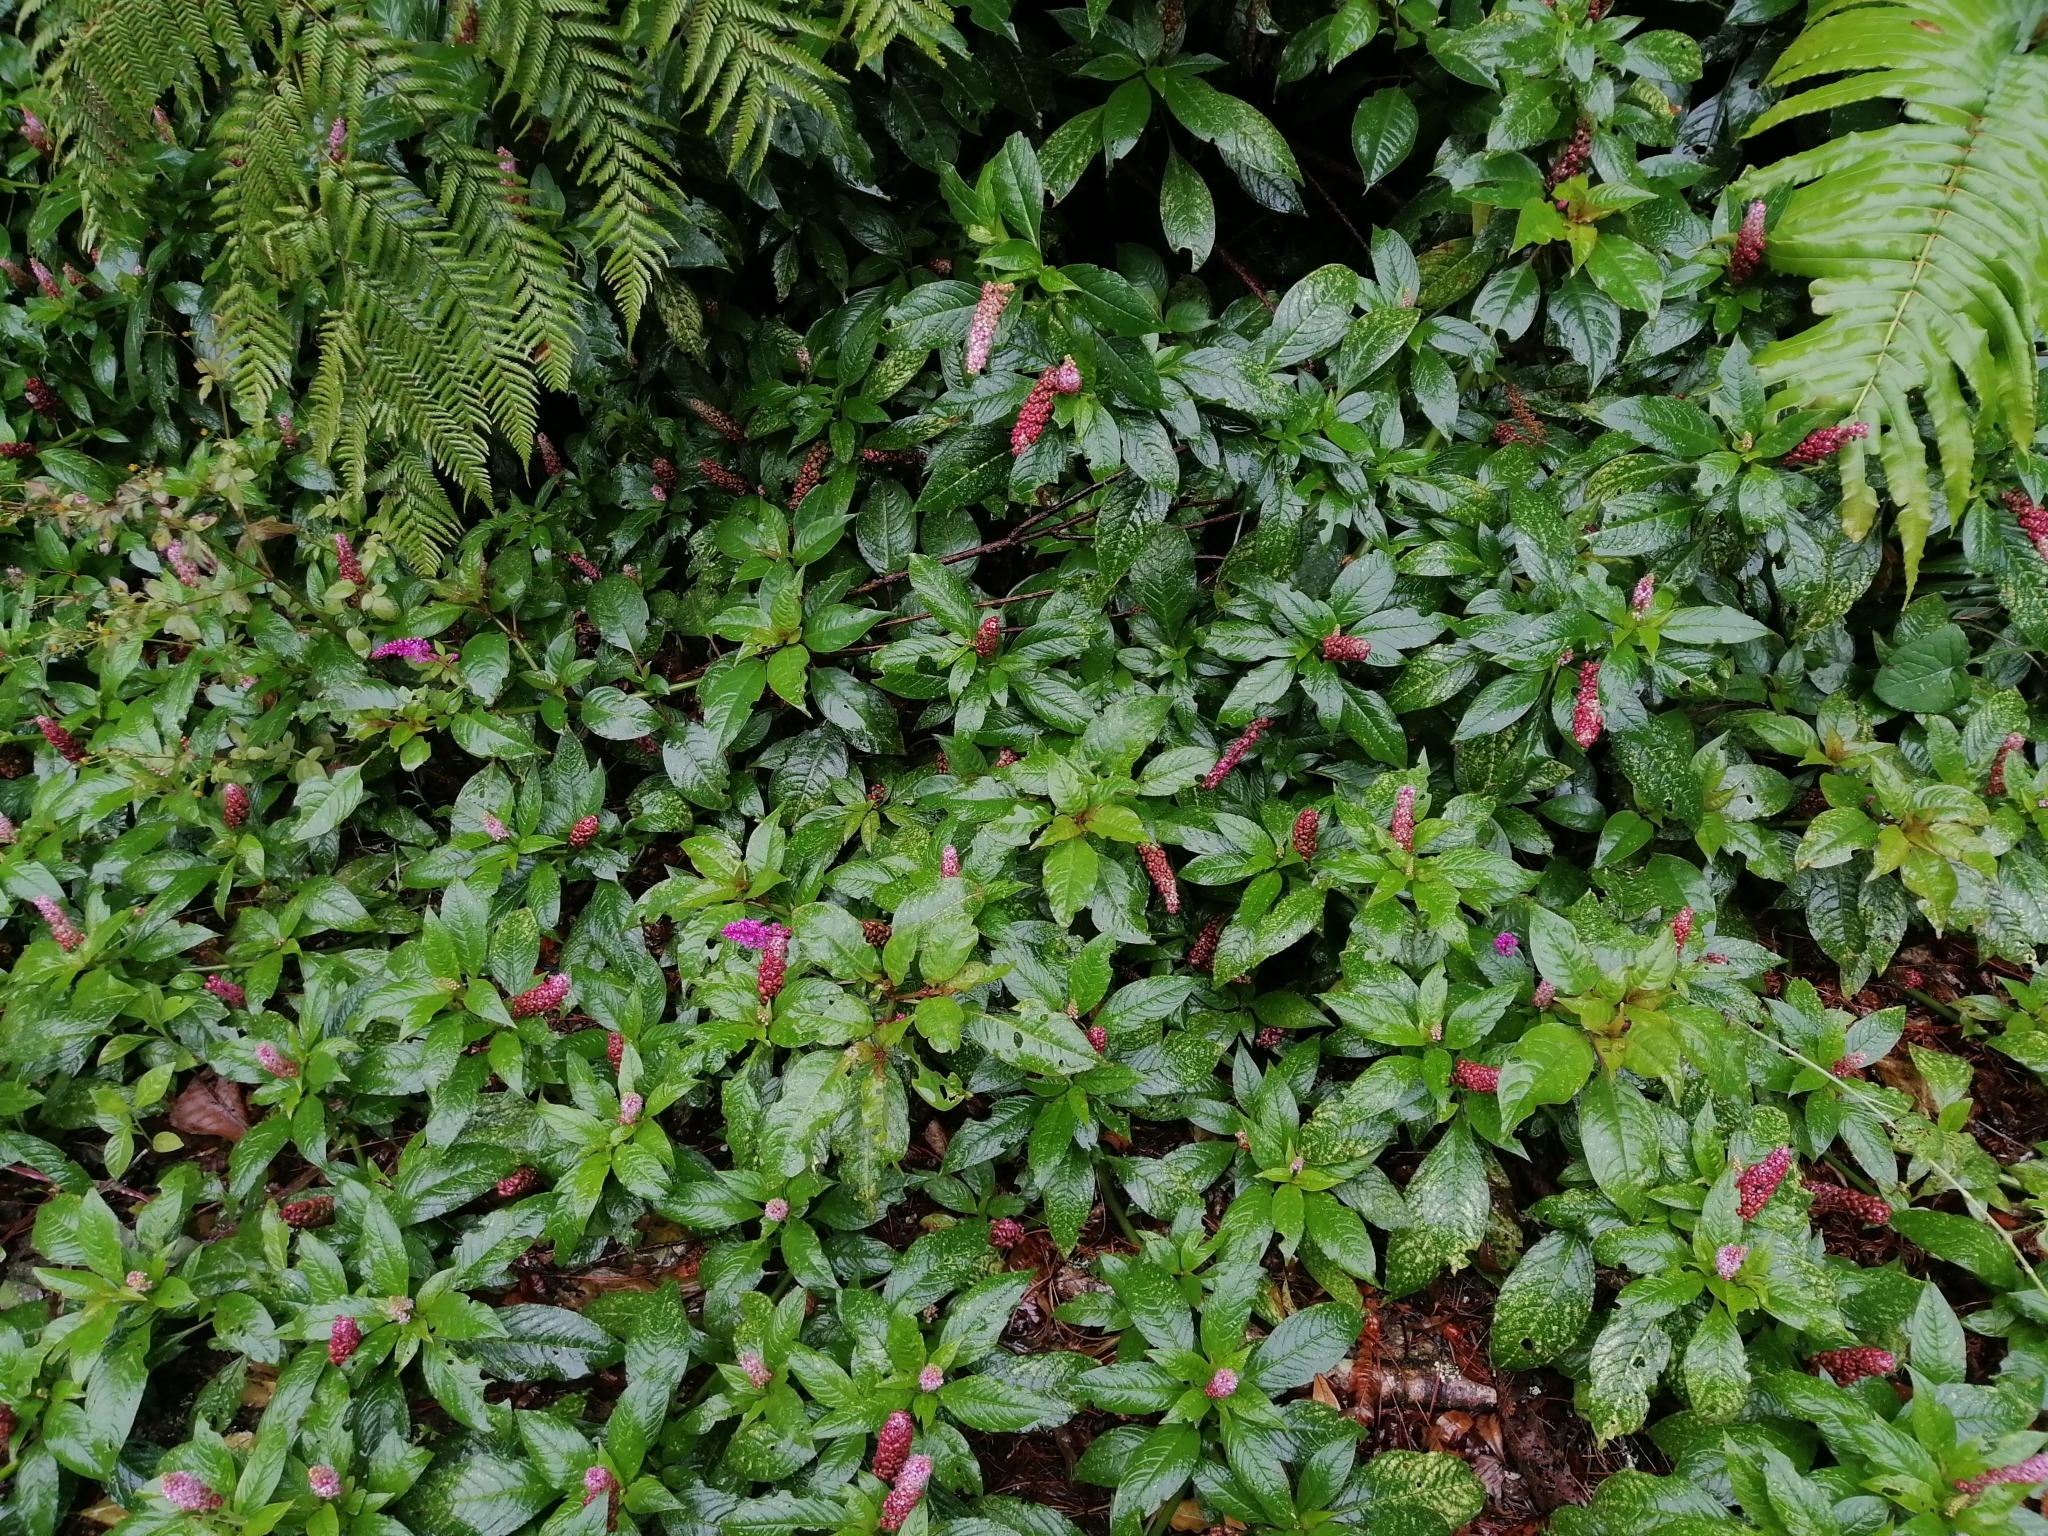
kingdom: Plantae
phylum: Tracheophyta
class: Magnoliopsida
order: Caryophyllales
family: Phytolaccaceae
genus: Phytolacca
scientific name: Phytolacca rugosa
